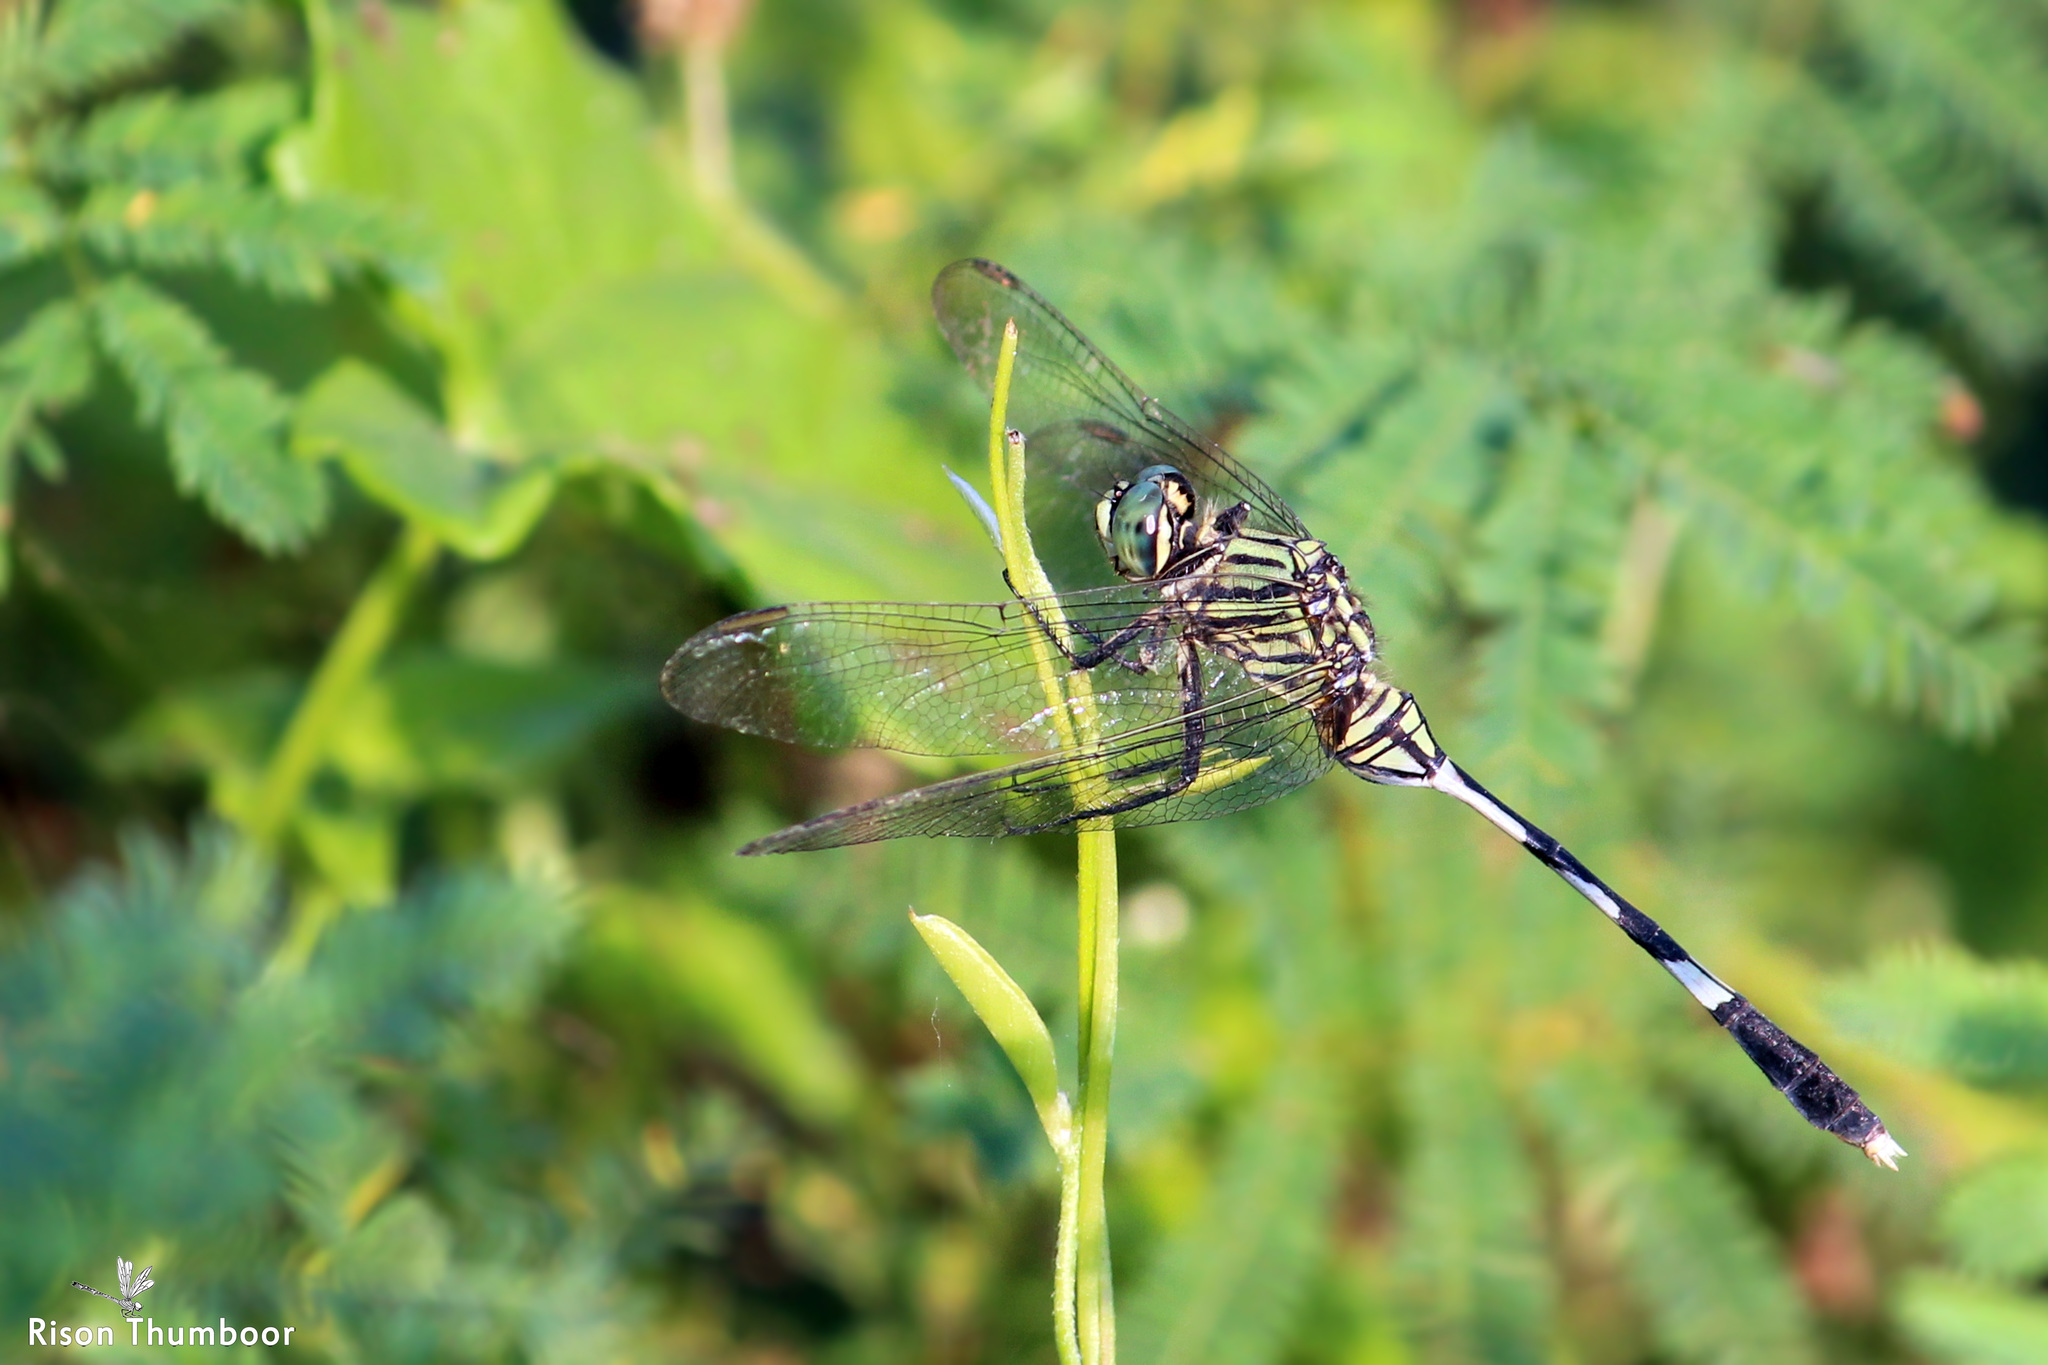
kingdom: Animalia
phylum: Arthropoda
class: Insecta
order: Odonata
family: Libellulidae
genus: Orthetrum
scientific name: Orthetrum sabina
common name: Slender skimmer
